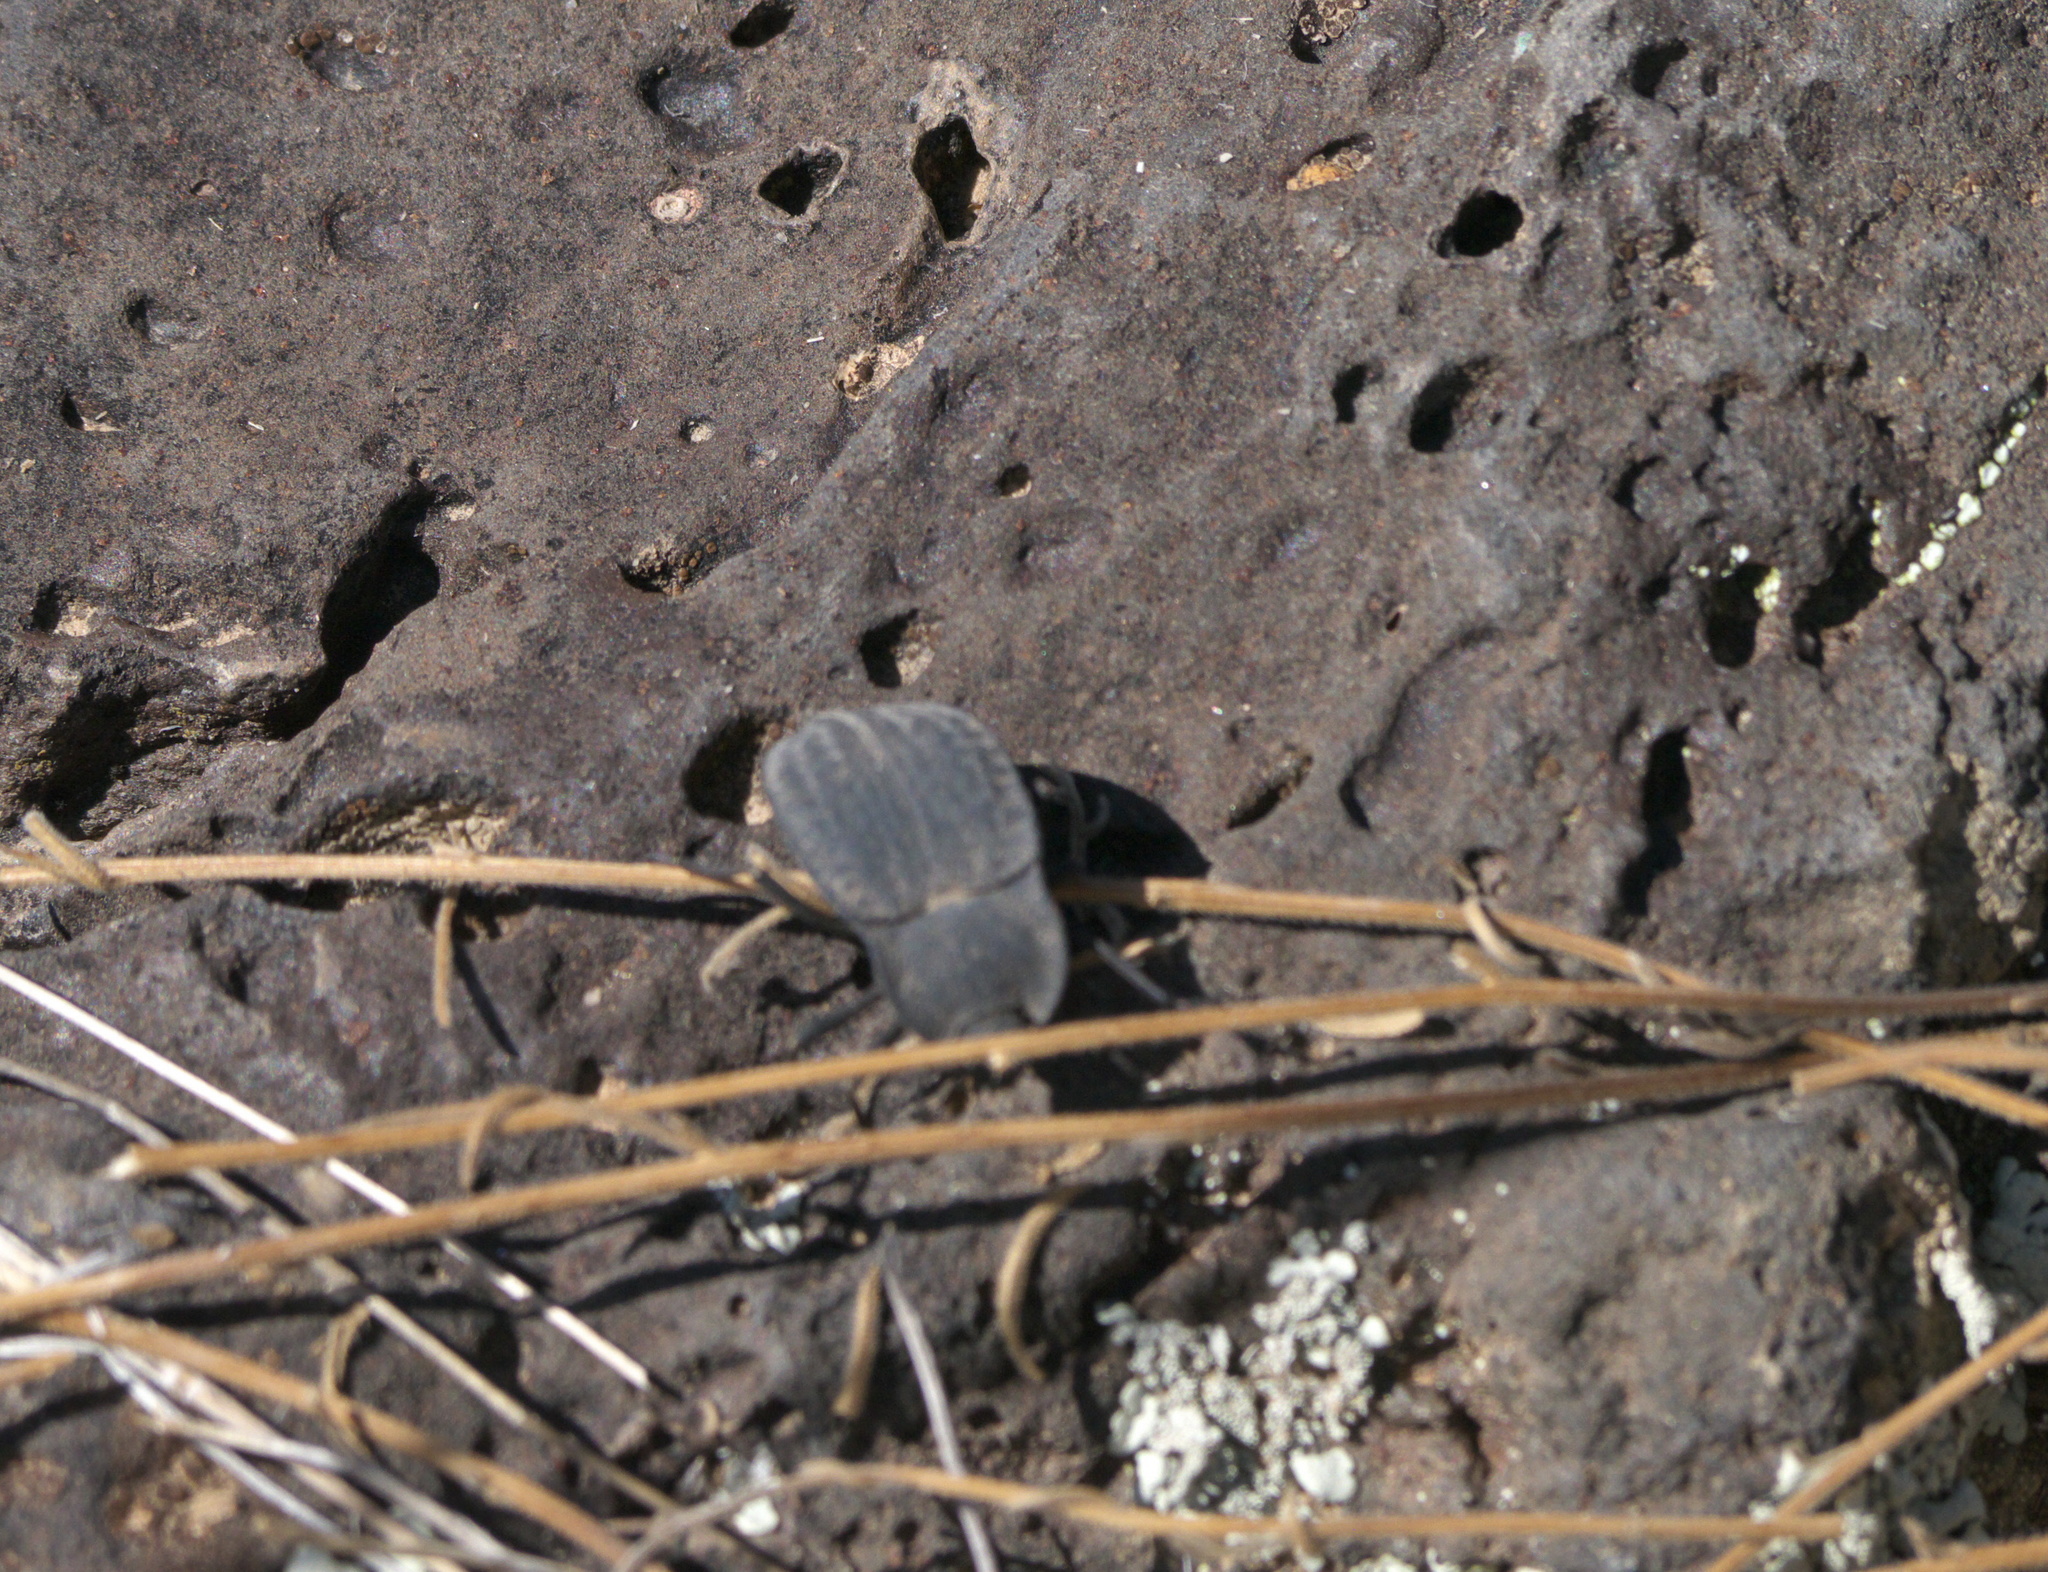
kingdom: Animalia
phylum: Arthropoda
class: Insecta
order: Coleoptera
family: Tenebrionidae
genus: Stenomorpha
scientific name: Stenomorpha opaca
